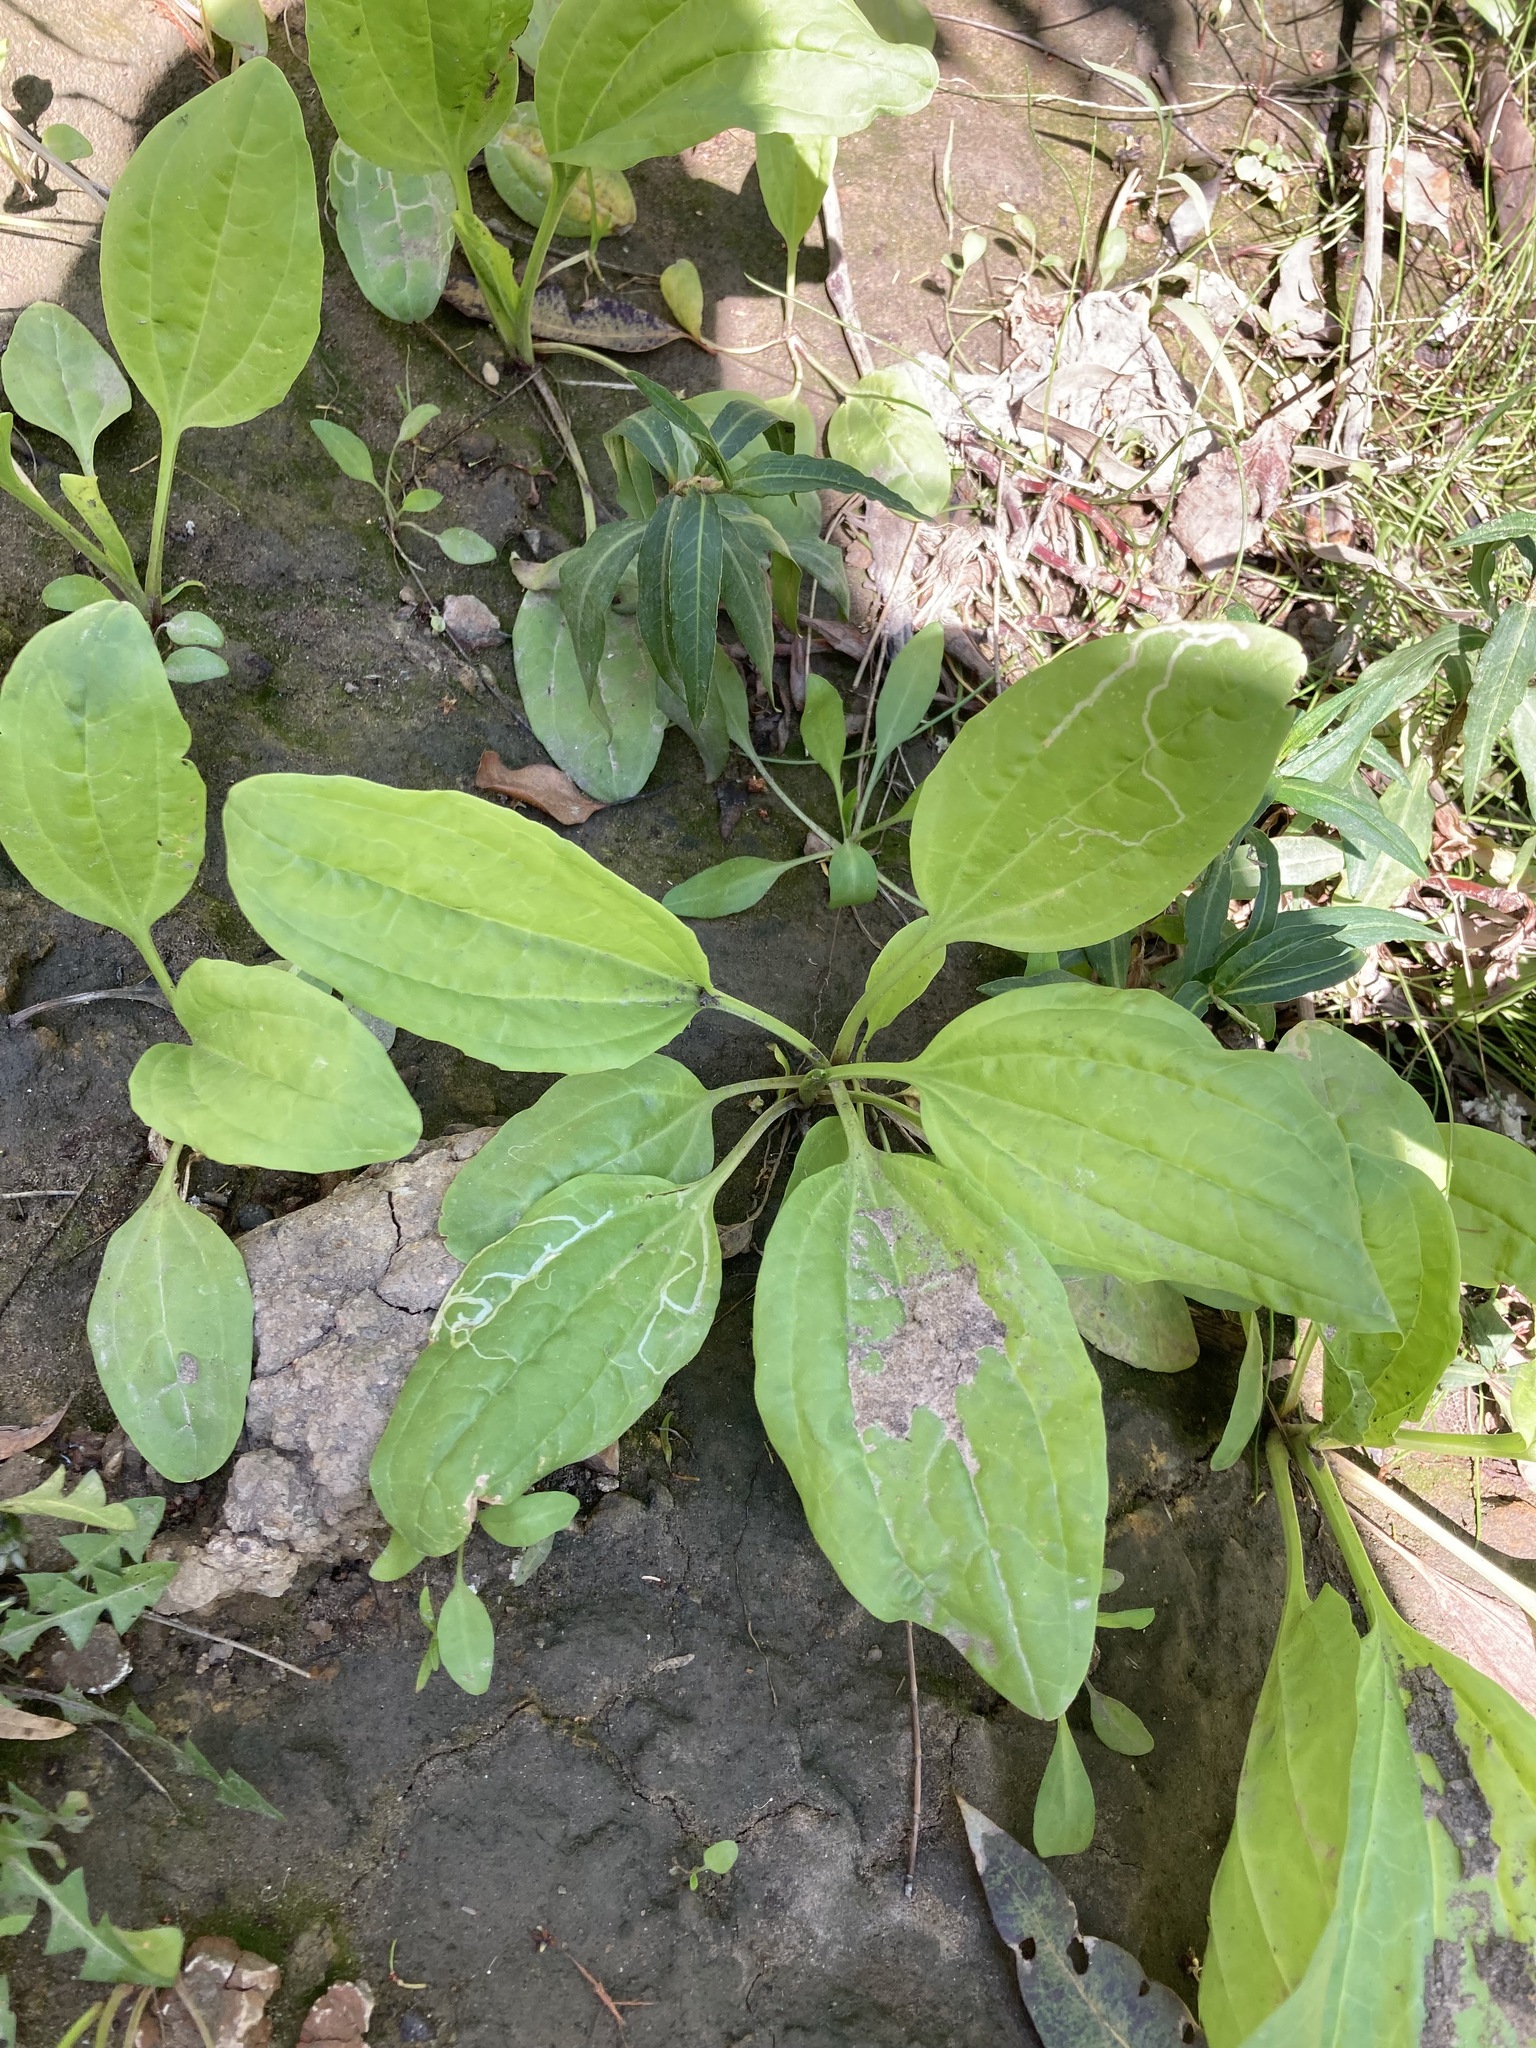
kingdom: Plantae
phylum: Tracheophyta
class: Magnoliopsida
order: Lamiales
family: Plantaginaceae
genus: Plantago
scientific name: Plantago major
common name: Common plantain
